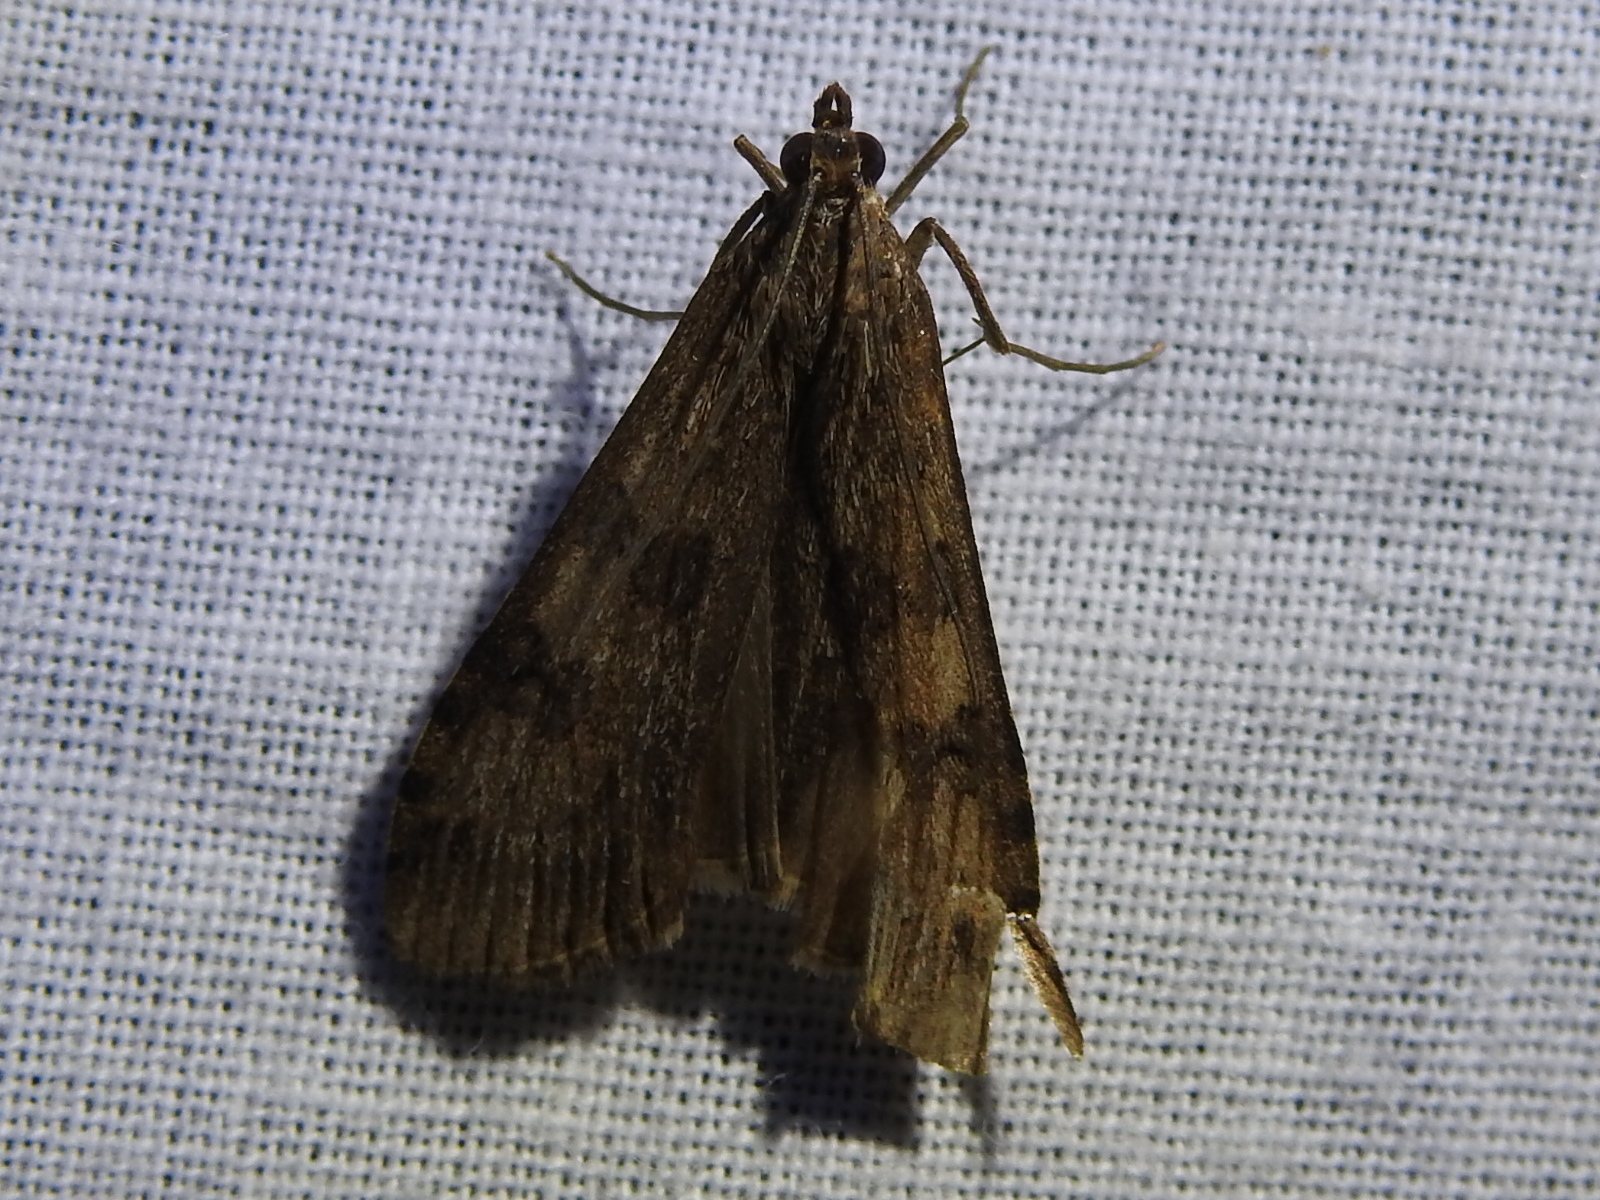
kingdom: Animalia
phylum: Arthropoda
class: Insecta
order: Lepidoptera
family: Crambidae
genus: Nomophila
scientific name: Nomophila nearctica
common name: American rush veneer
